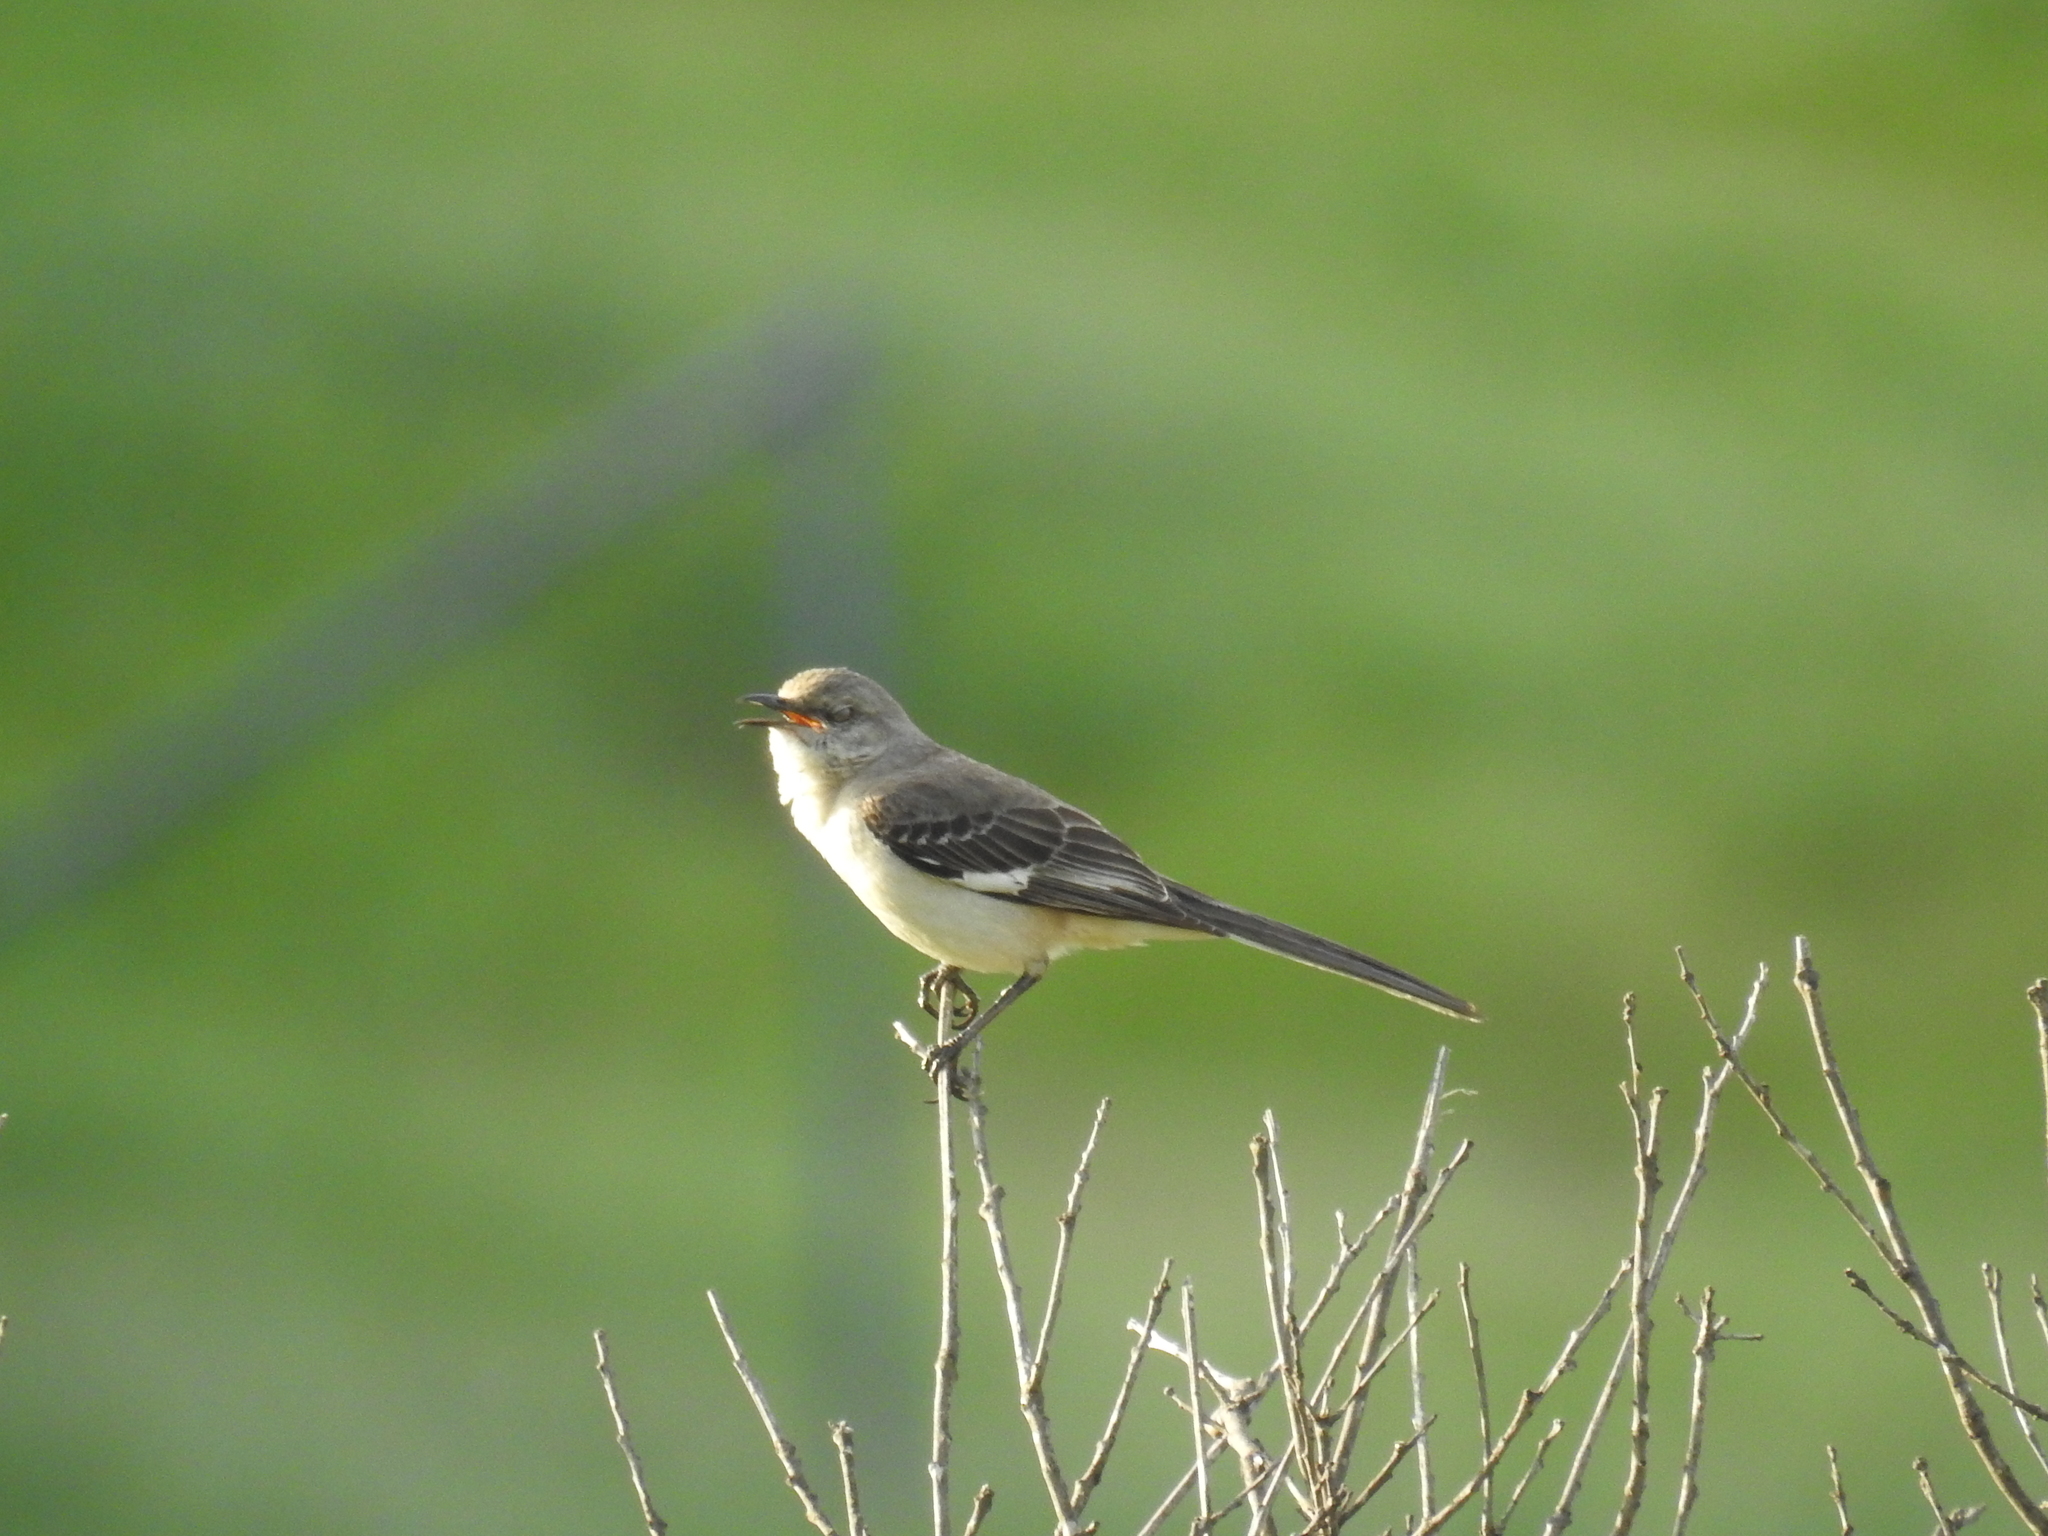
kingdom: Animalia
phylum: Chordata
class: Aves
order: Passeriformes
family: Mimidae
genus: Mimus
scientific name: Mimus polyglottos
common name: Northern mockingbird
